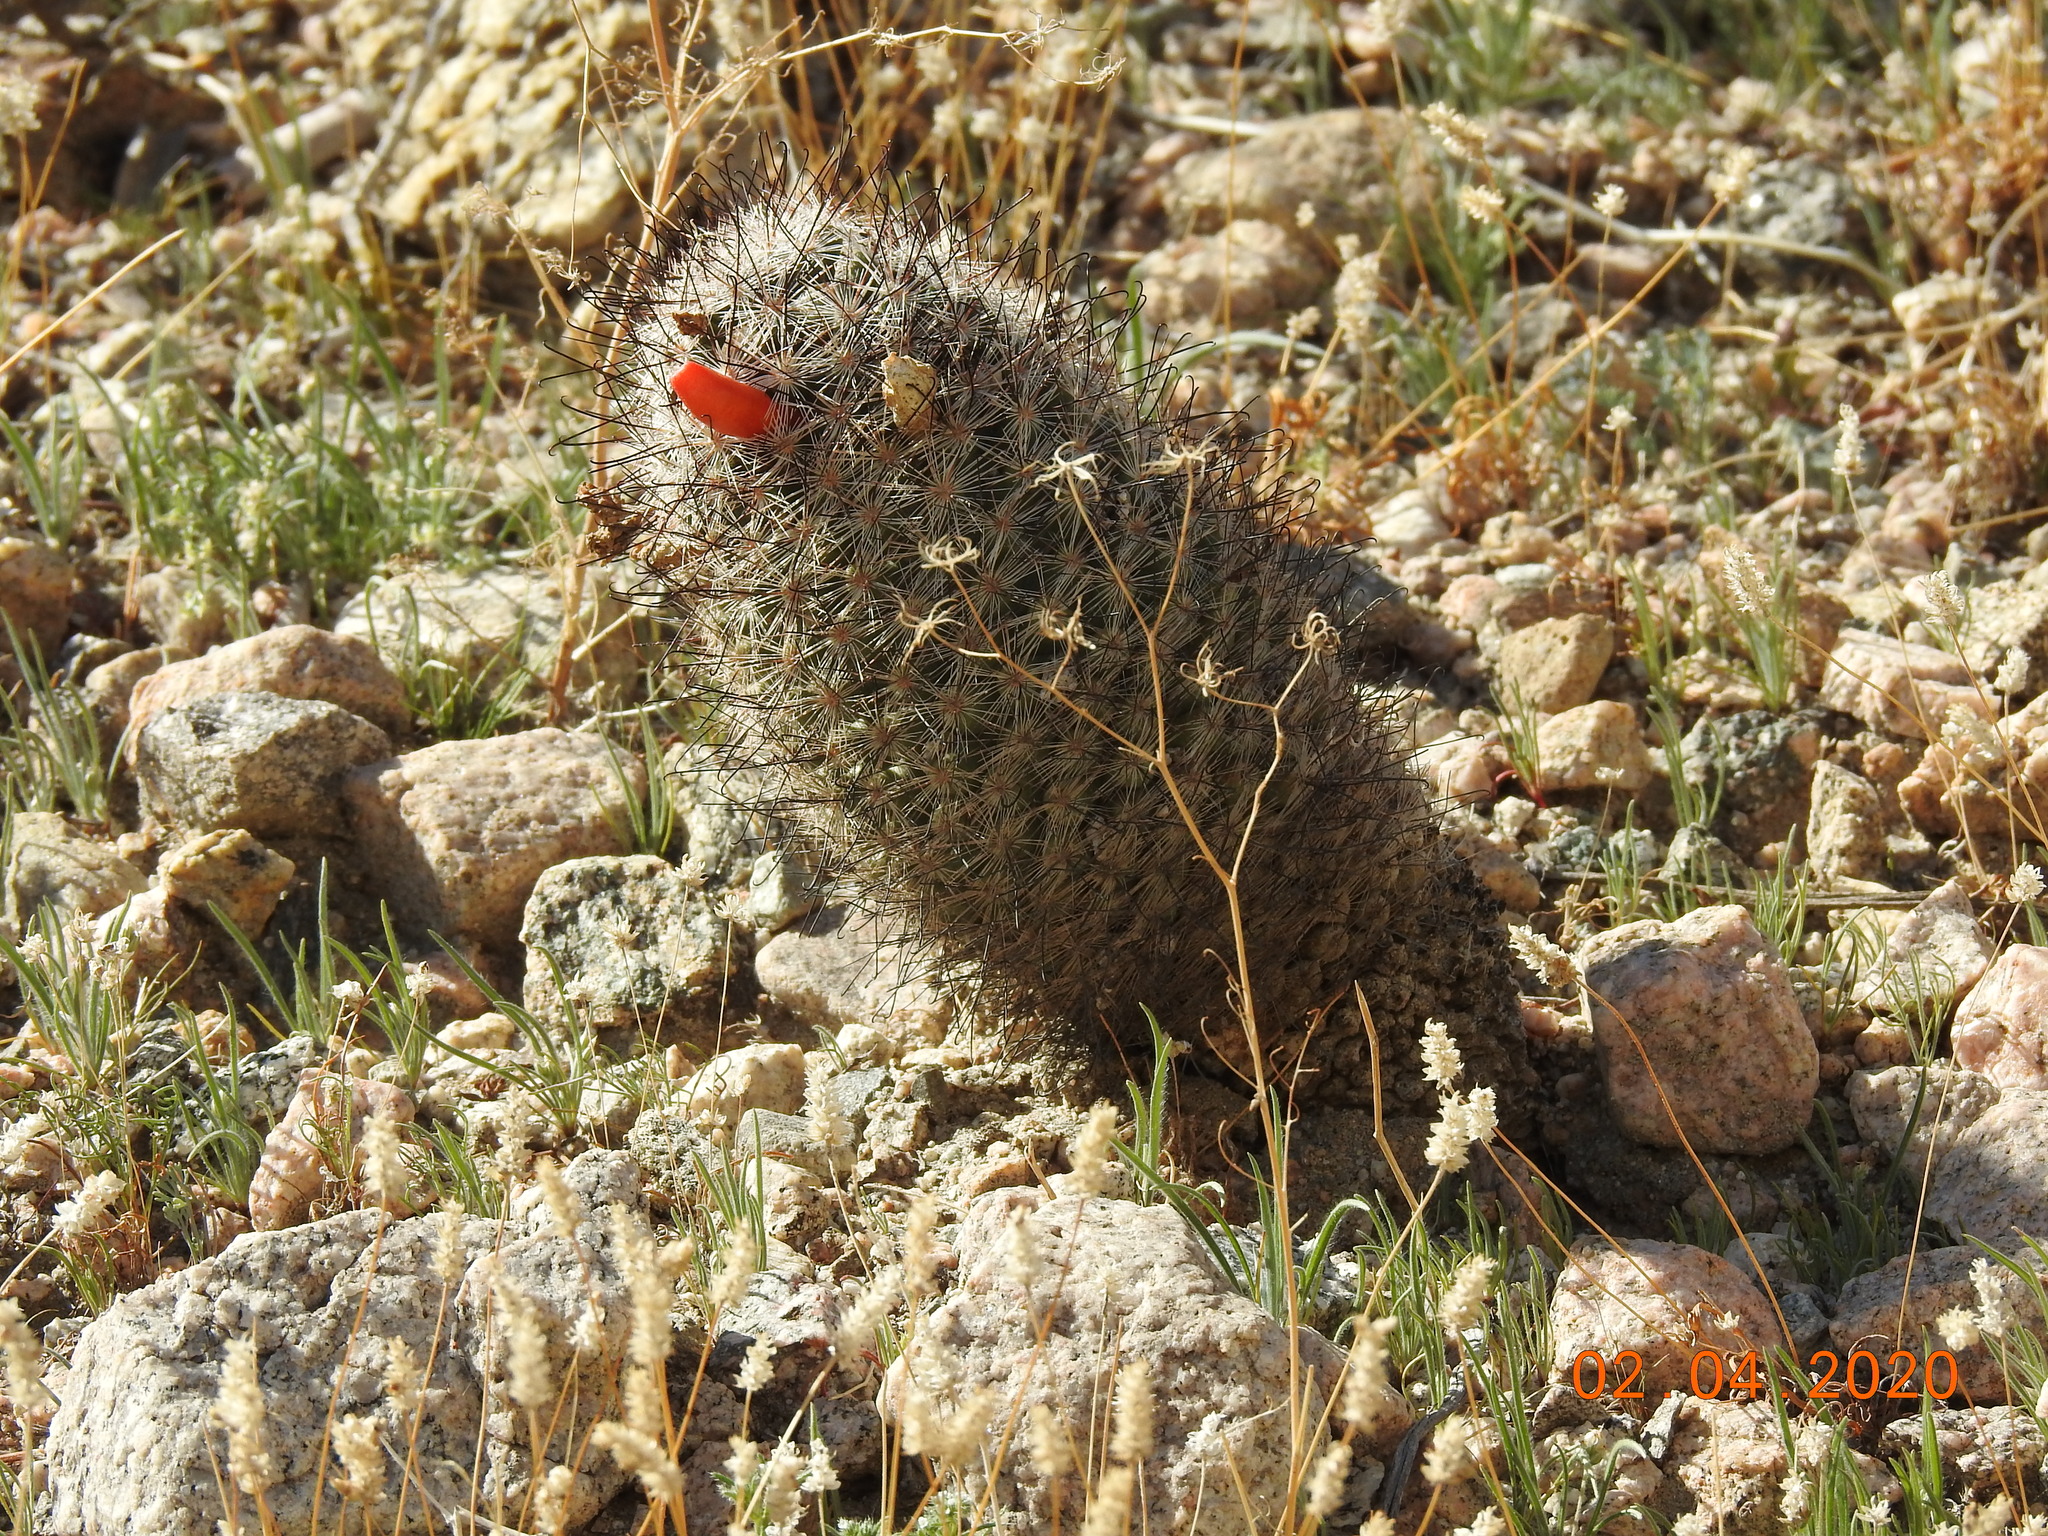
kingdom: Plantae
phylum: Tracheophyta
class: Magnoliopsida
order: Caryophyllales
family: Cactaceae
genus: Cochemiea
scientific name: Cochemiea tetrancistra
